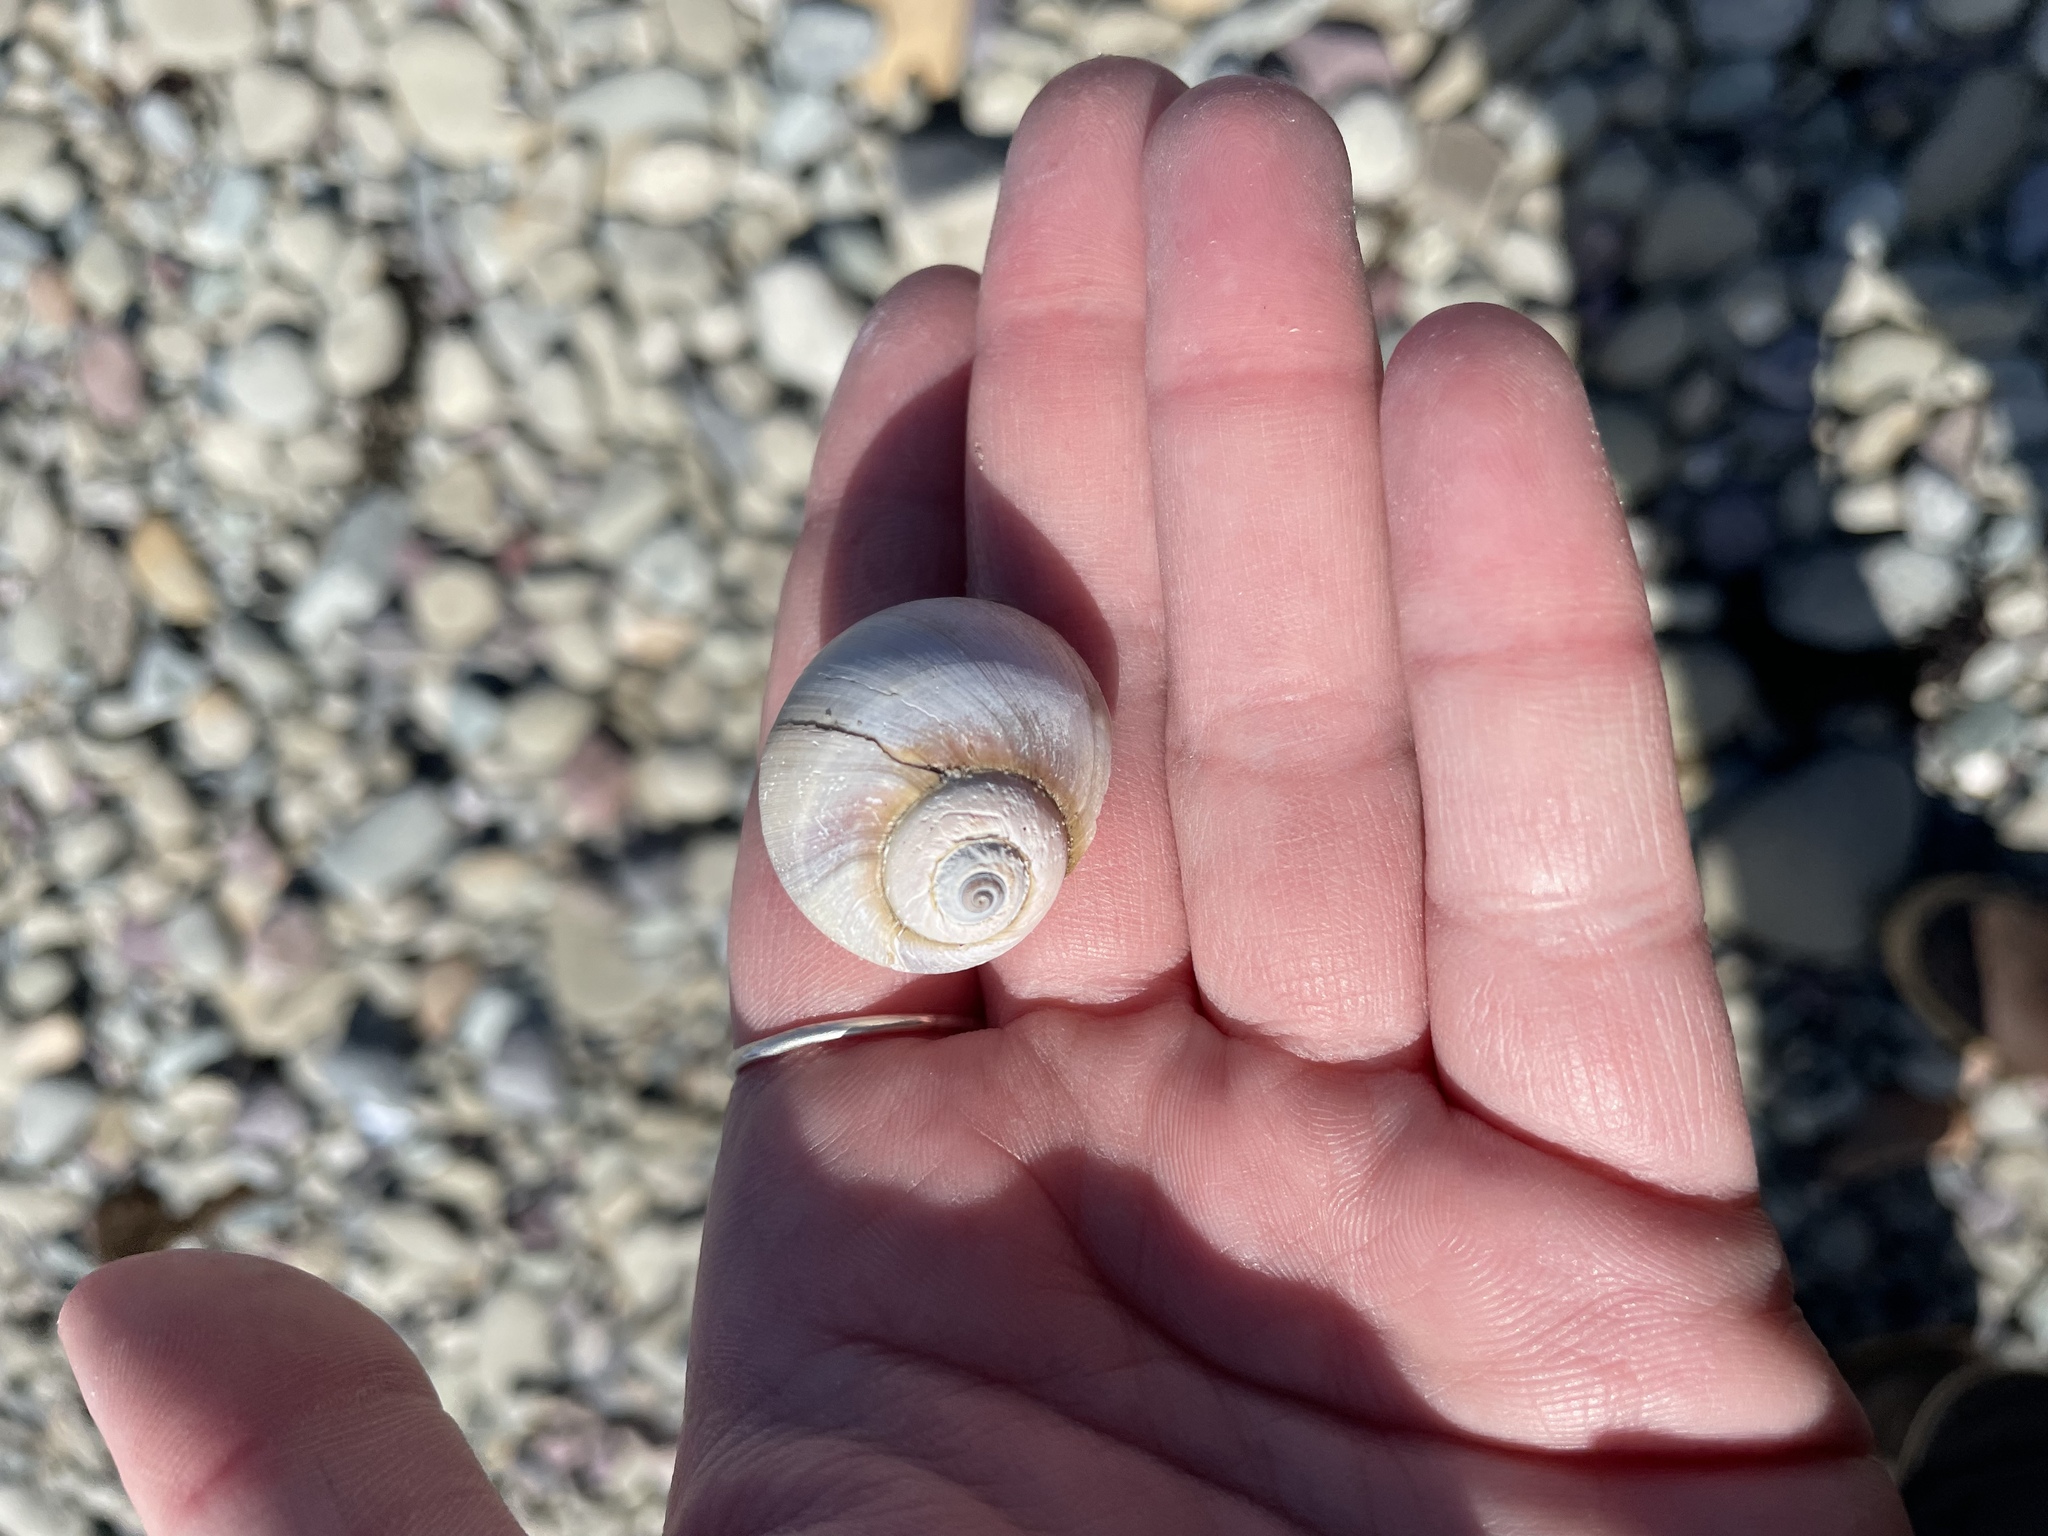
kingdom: Animalia
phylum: Mollusca
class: Gastropoda
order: Littorinimorpha
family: Naticidae
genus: Euspira
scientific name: Euspira heros
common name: Common northern moonsnail
